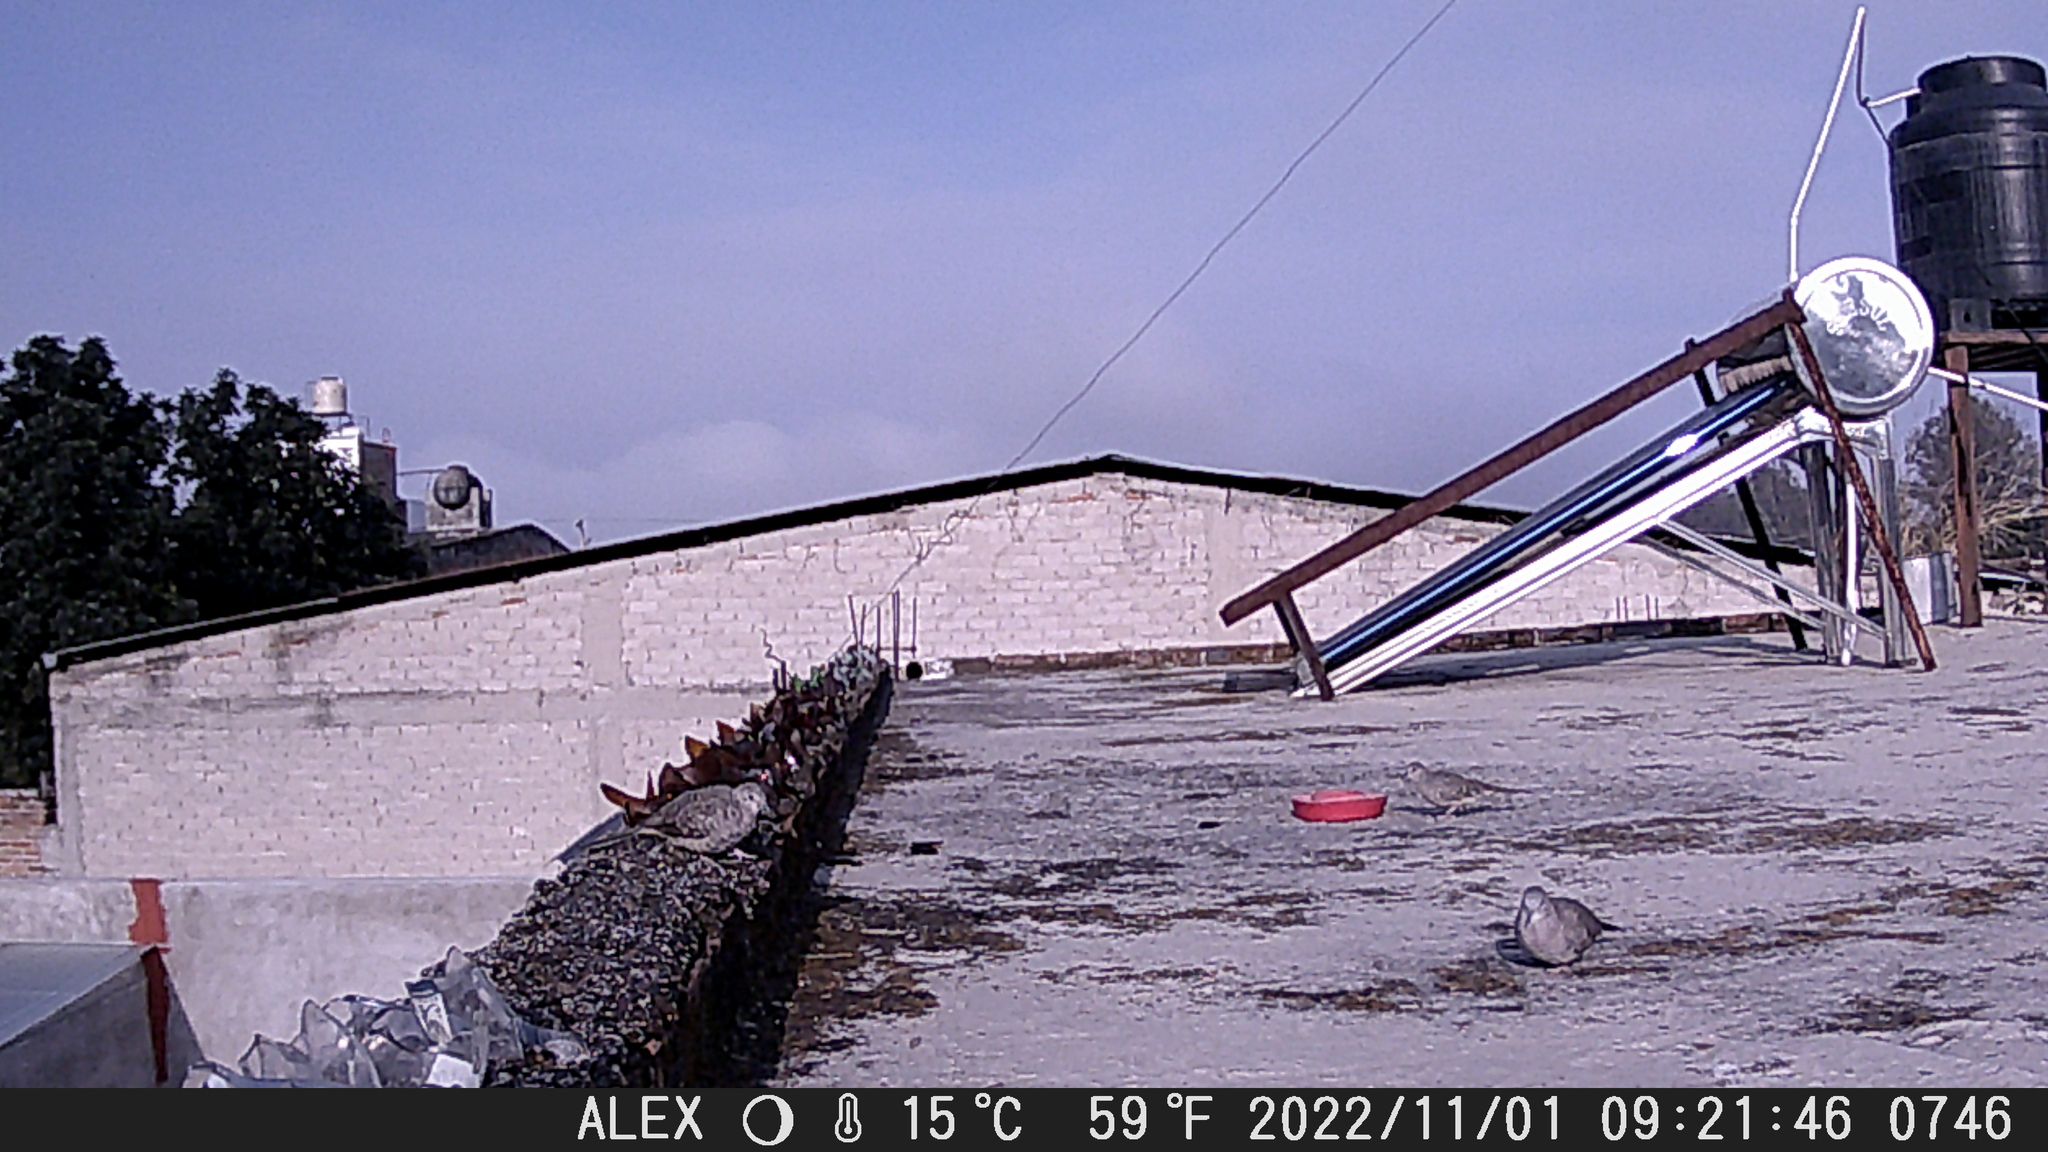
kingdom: Animalia
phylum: Chordata
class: Aves
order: Columbiformes
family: Columbidae
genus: Columbina
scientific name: Columbina inca
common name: Inca dove
